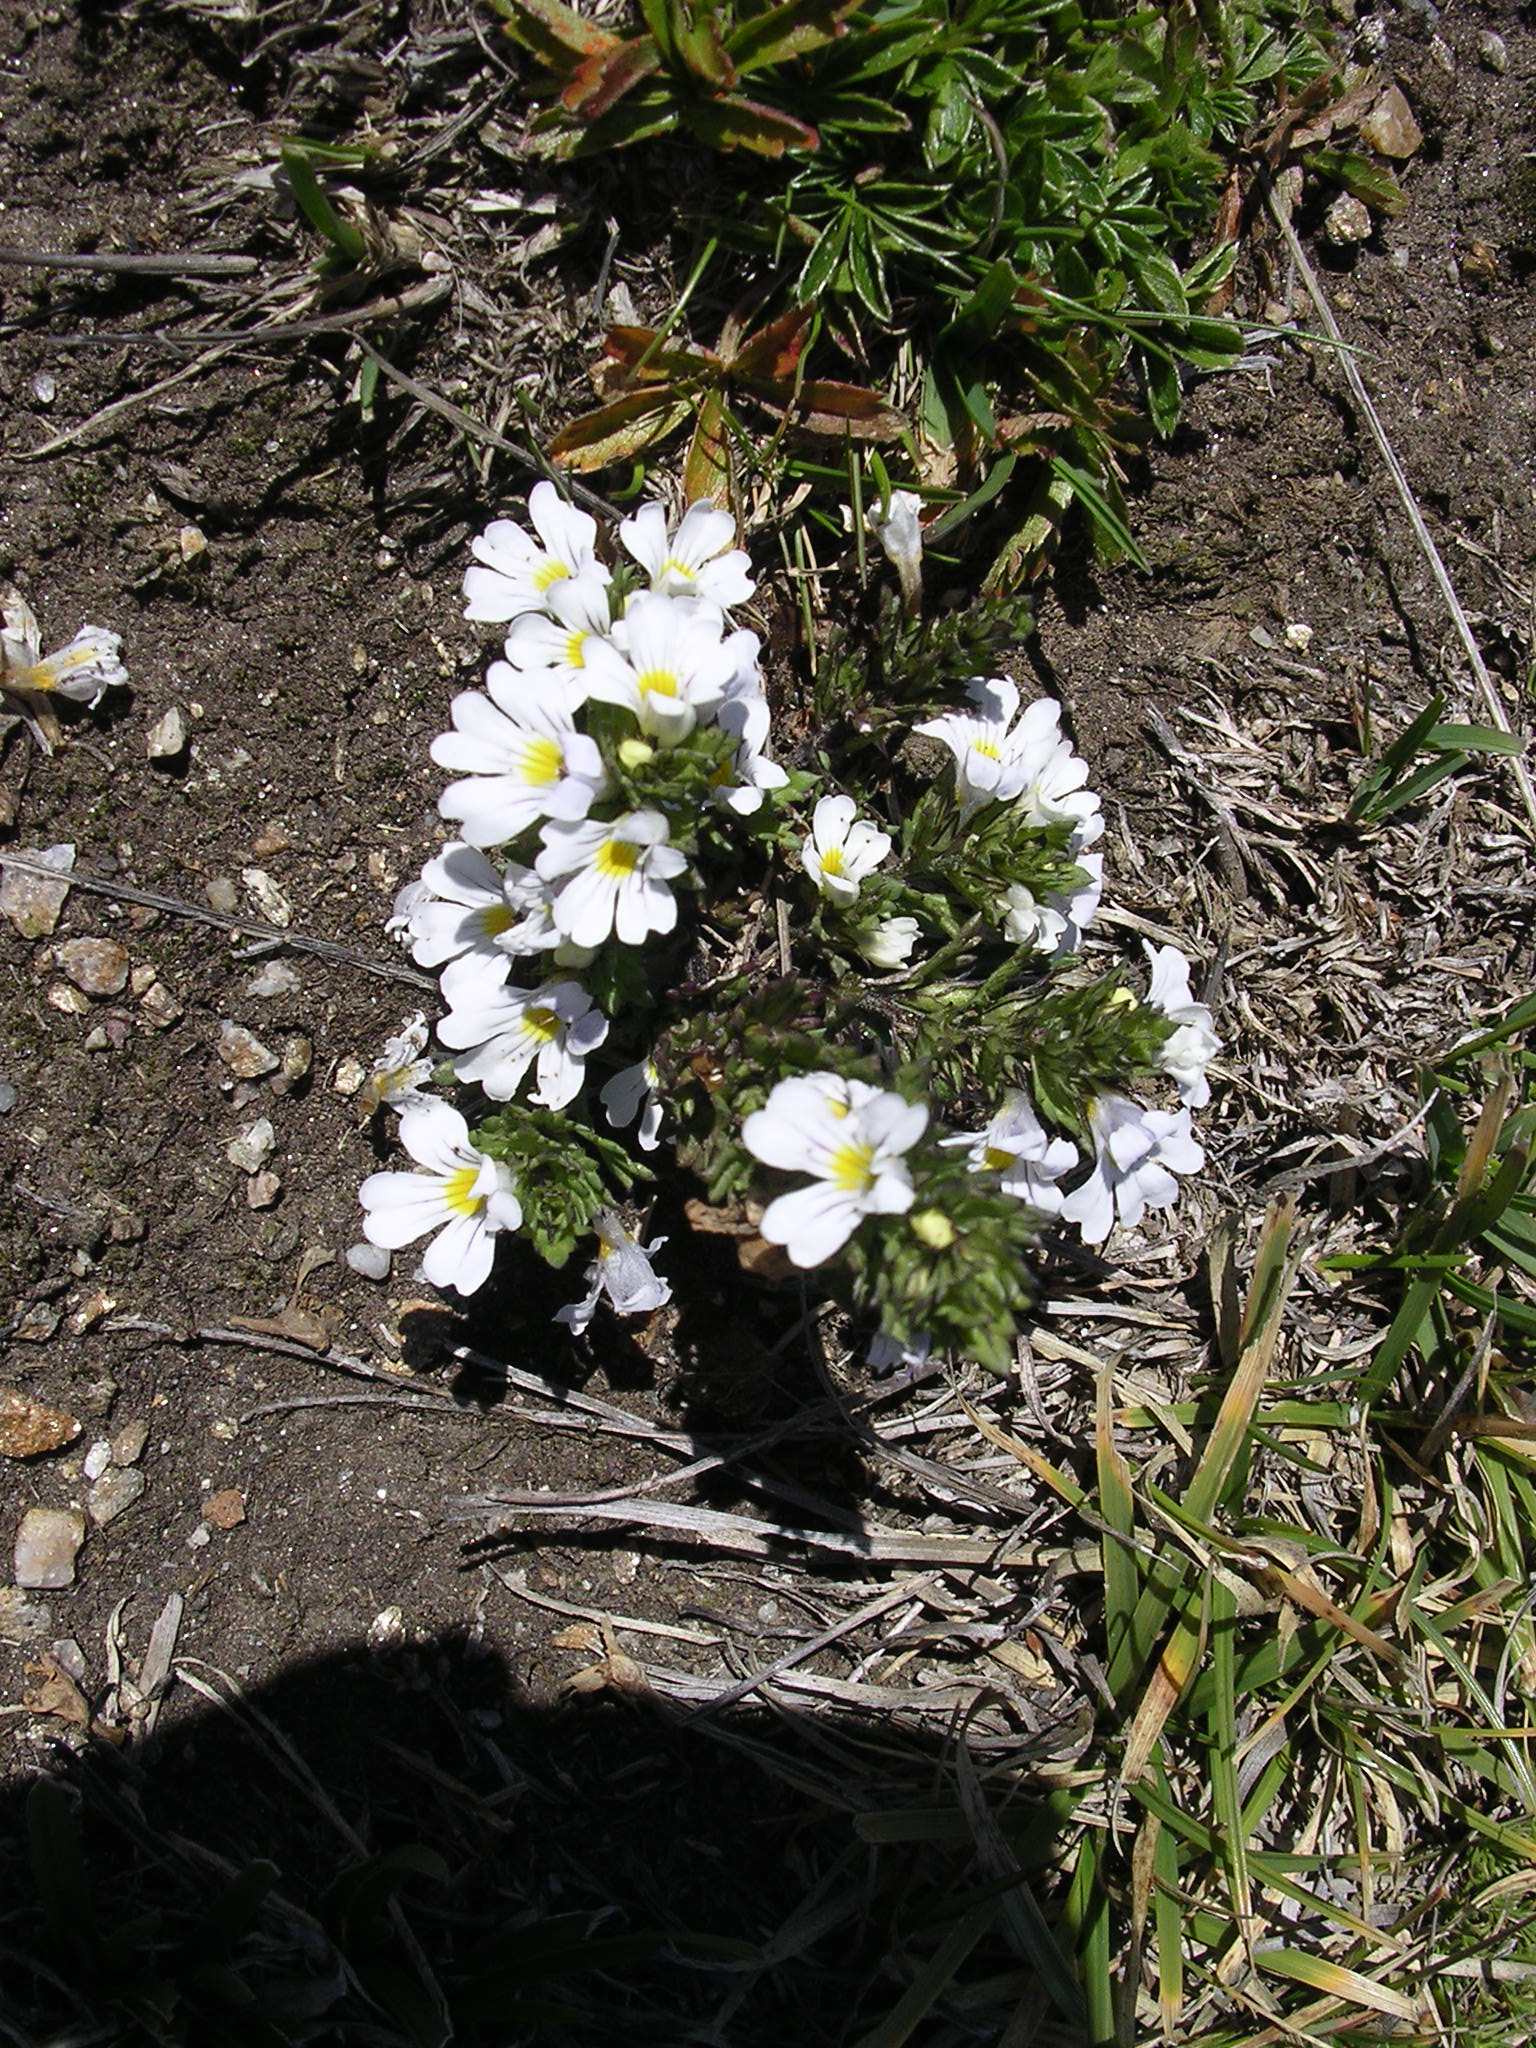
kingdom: Plantae
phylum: Tracheophyta
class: Magnoliopsida
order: Lamiales
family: Orobanchaceae
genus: Euphrasia
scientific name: Euphrasia alpina
